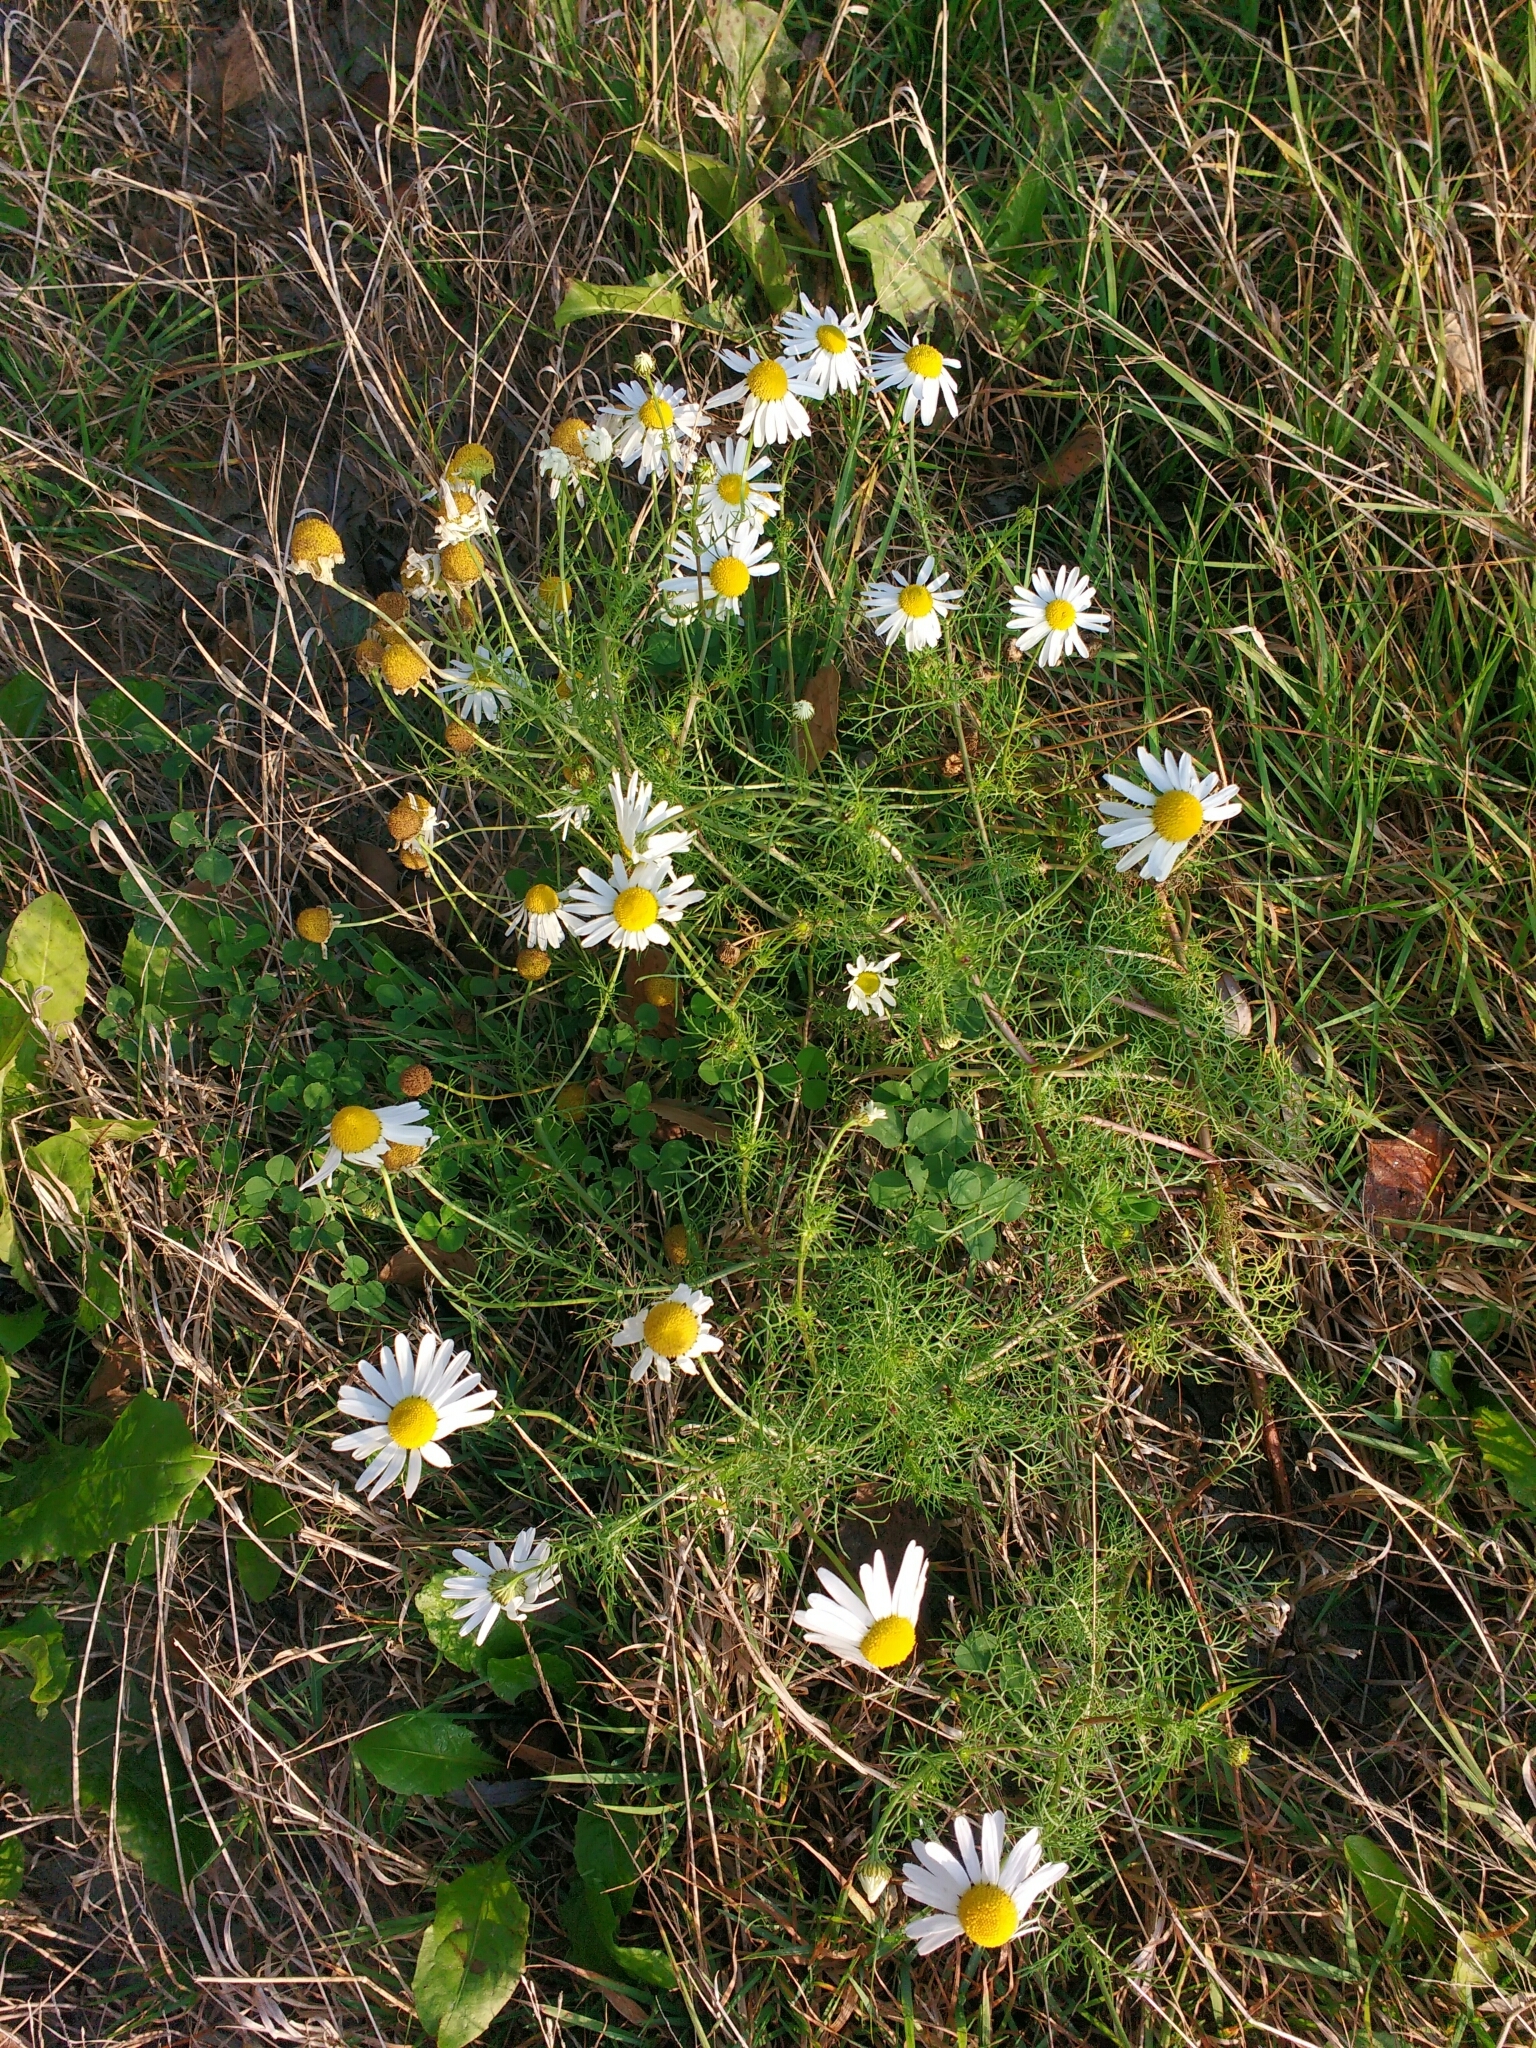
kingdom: Plantae
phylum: Tracheophyta
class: Magnoliopsida
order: Asterales
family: Asteraceae
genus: Tripleurospermum
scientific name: Tripleurospermum inodorum
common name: Scentless mayweed
